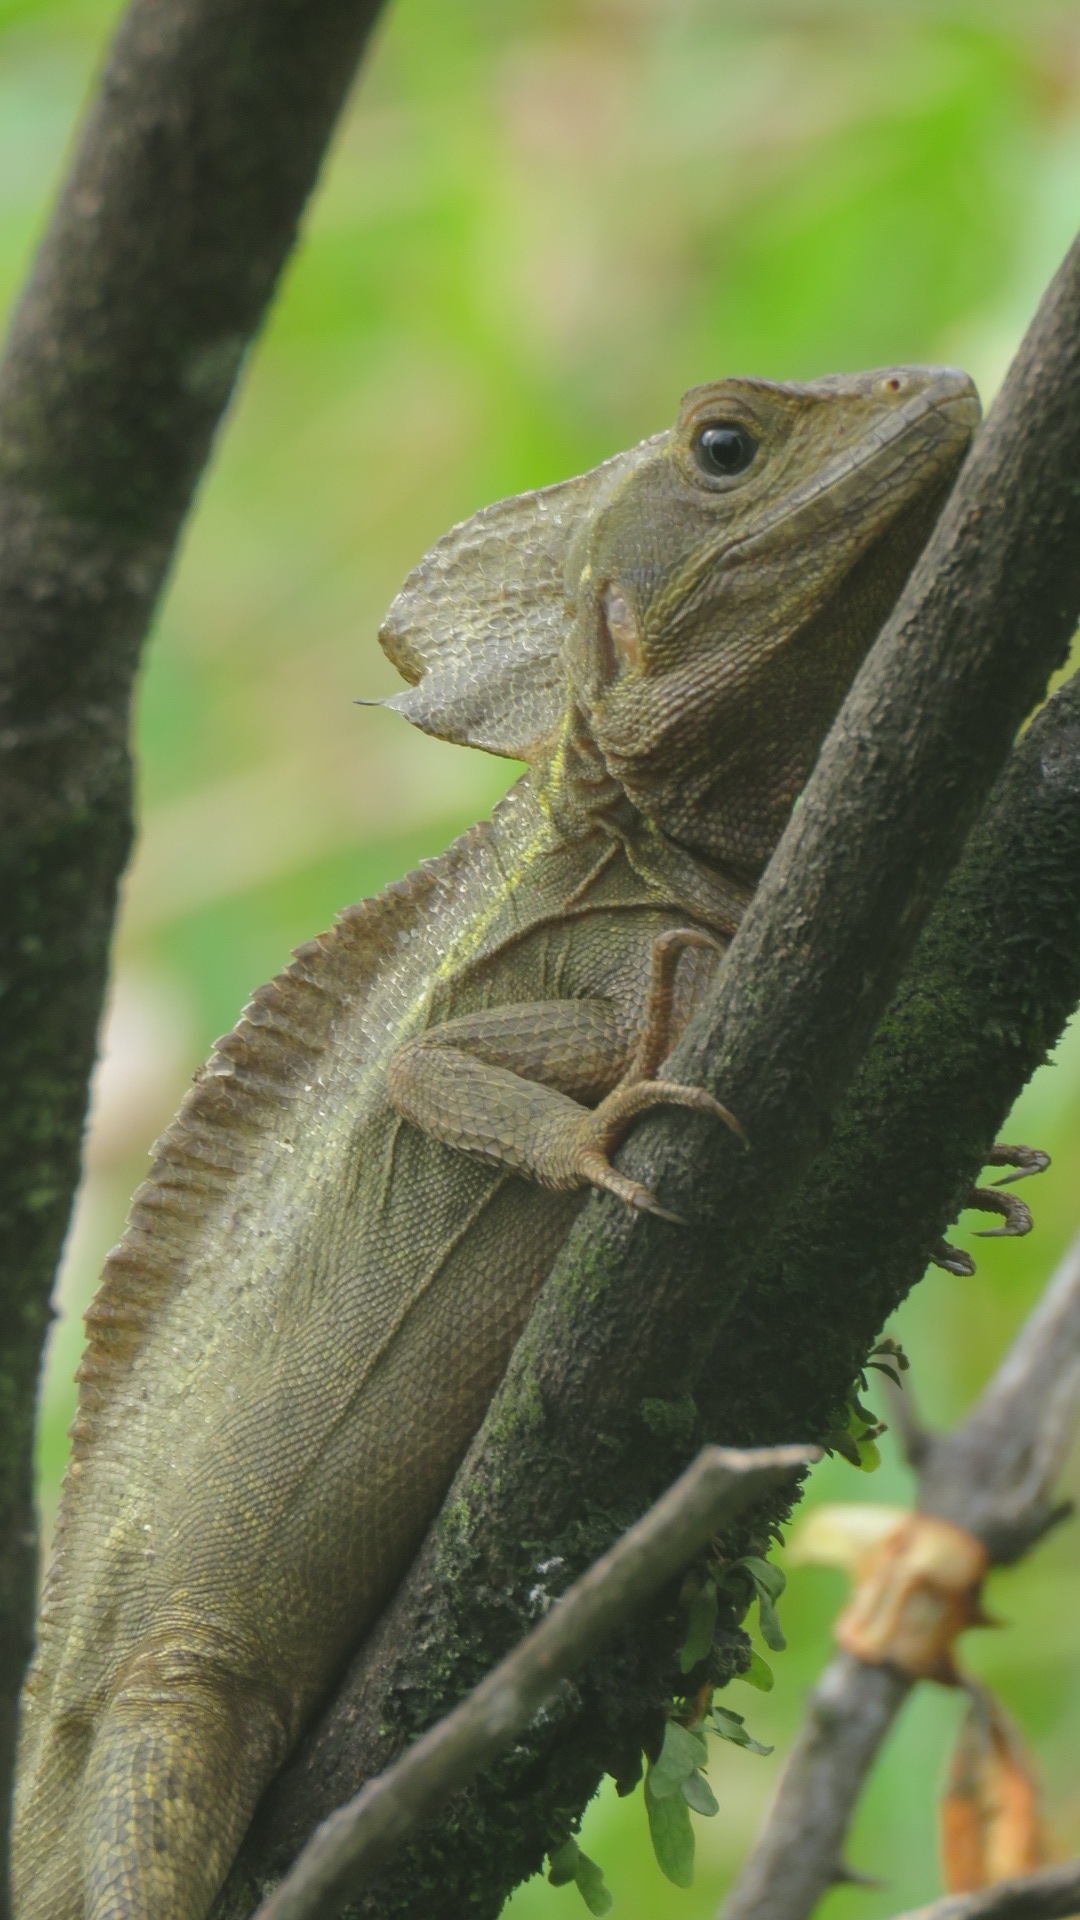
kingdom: Animalia
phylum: Chordata
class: Squamata
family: Corytophanidae
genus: Basiliscus
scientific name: Basiliscus vittatus
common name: Brown basilisk
